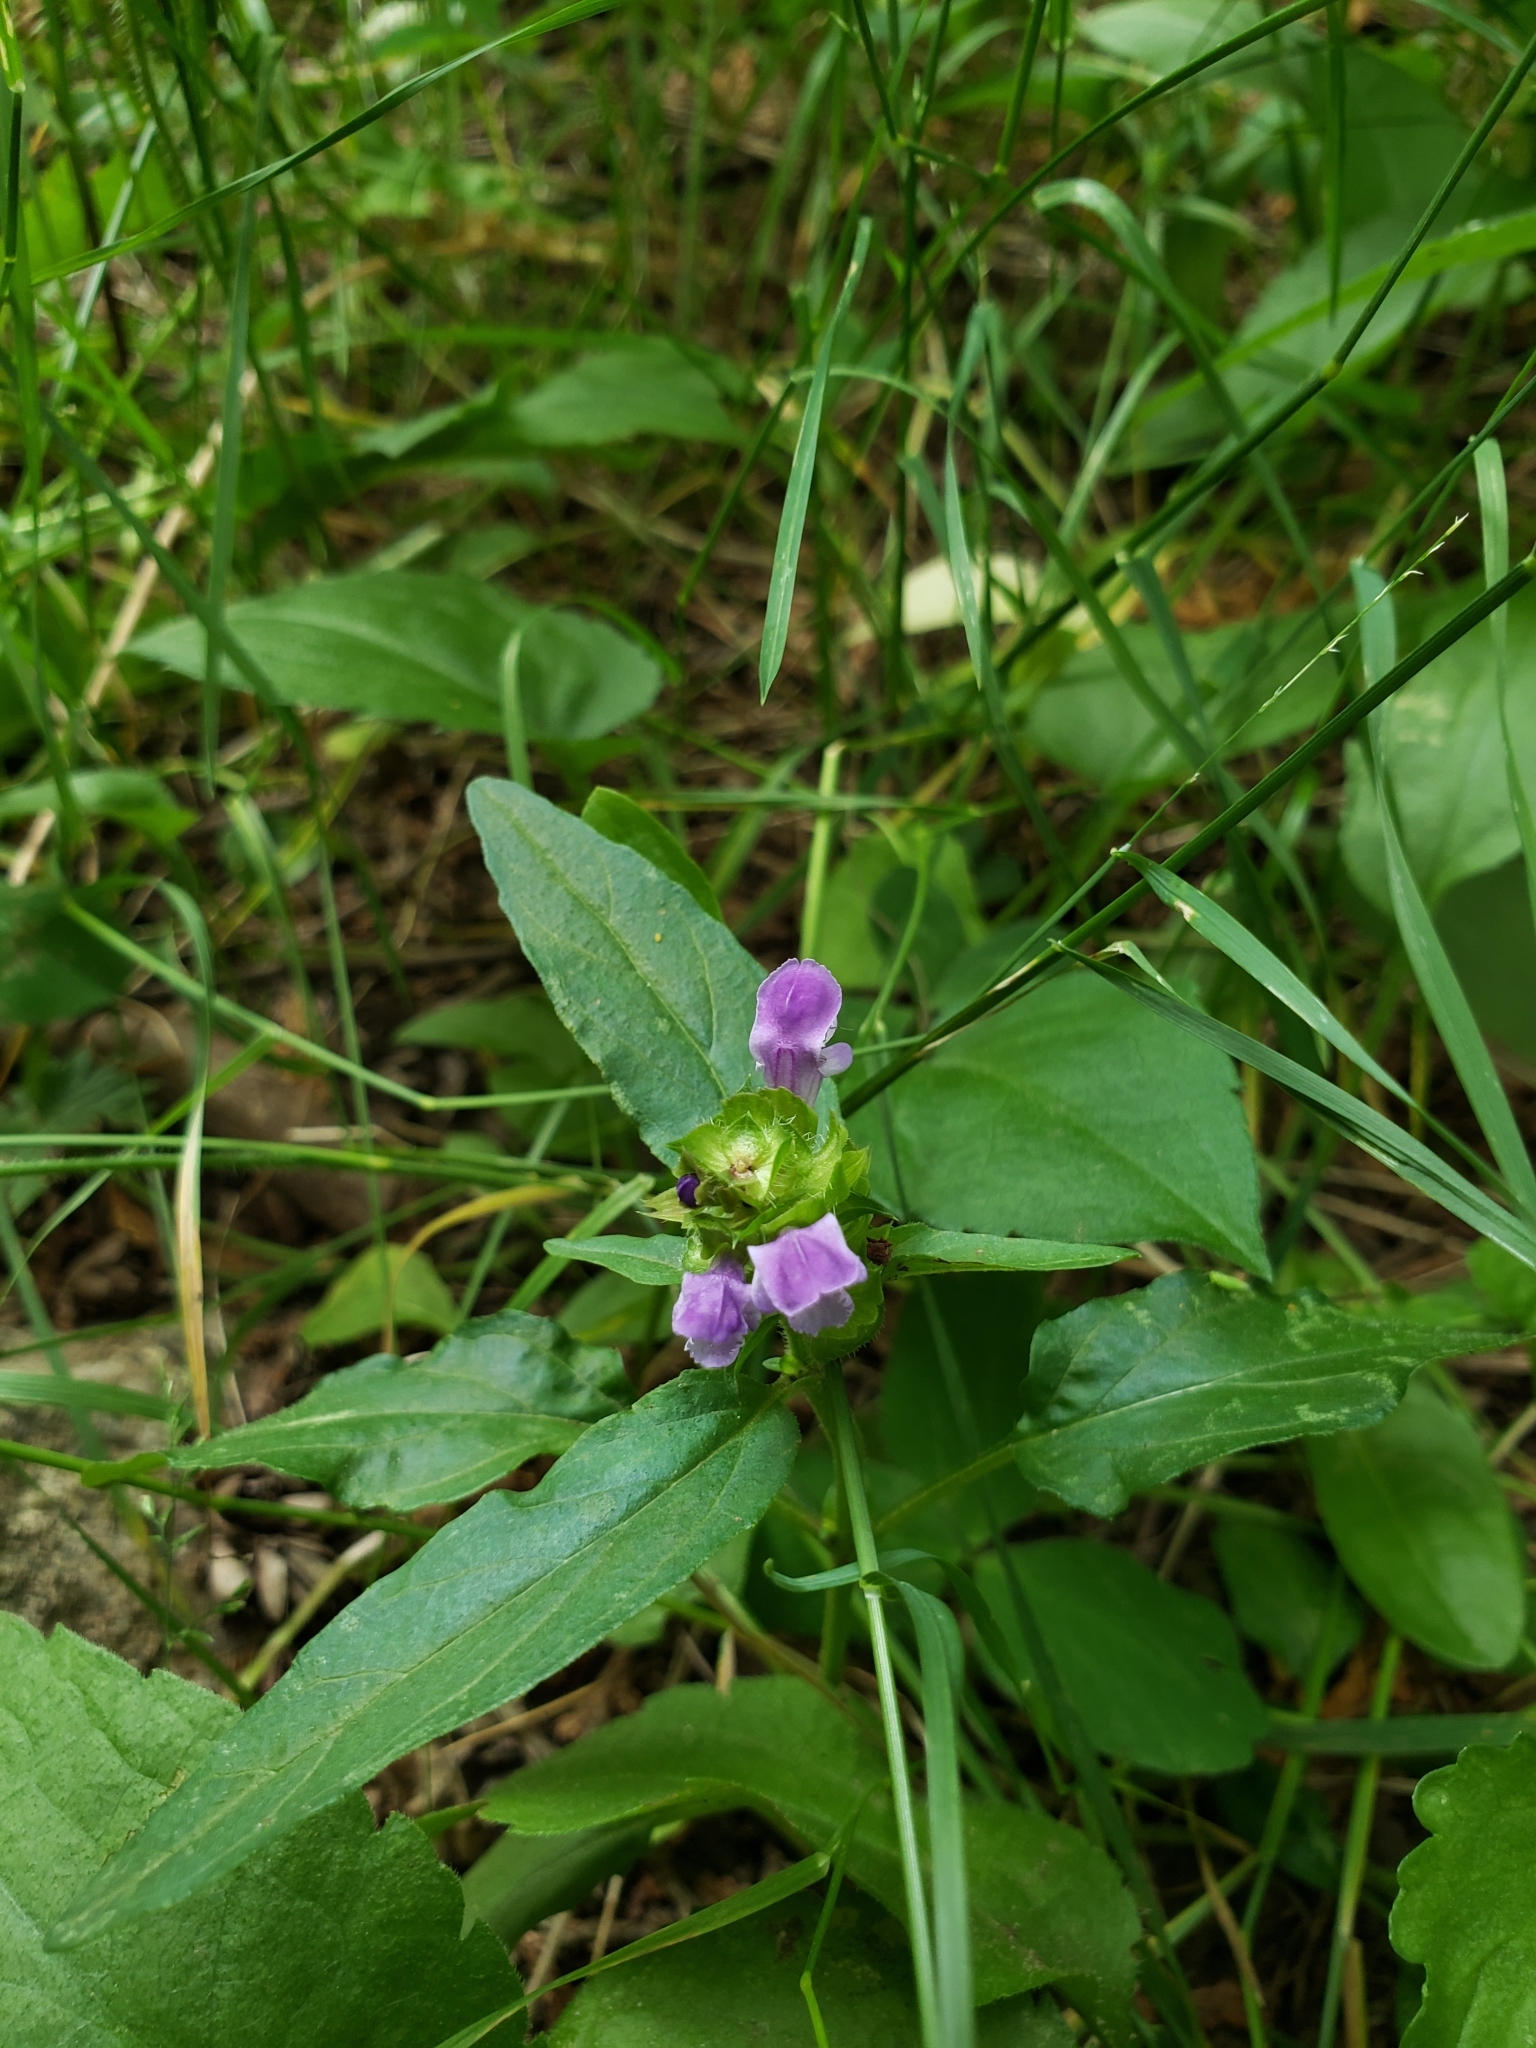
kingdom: Plantae
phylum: Tracheophyta
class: Magnoliopsida
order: Lamiales
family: Lamiaceae
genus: Prunella
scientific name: Prunella vulgaris
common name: Heal-all
